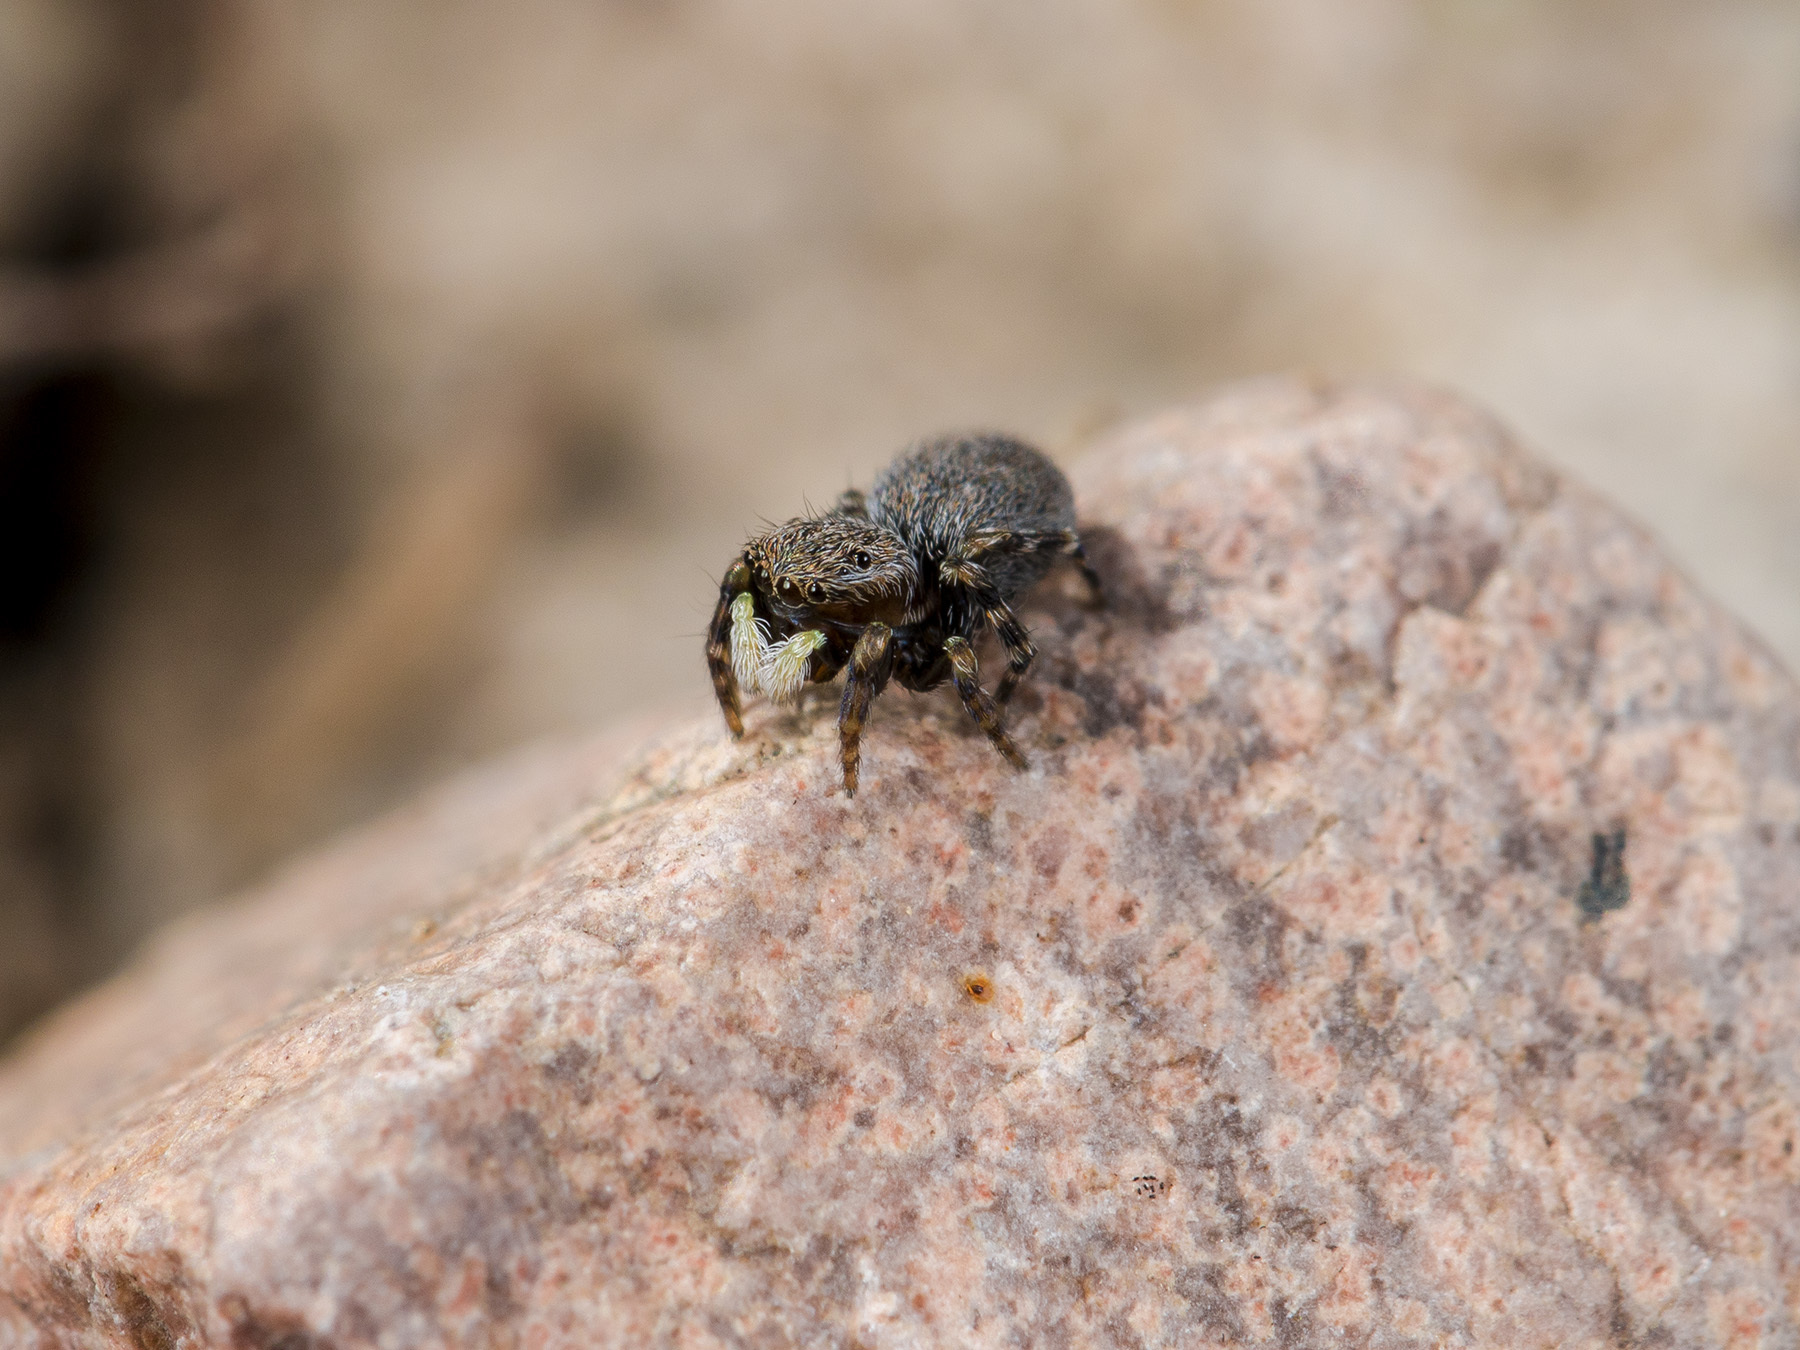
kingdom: Animalia
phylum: Arthropoda
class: Arachnida
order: Araneae
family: Salticidae
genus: Talavera
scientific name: Talavera petrensis
